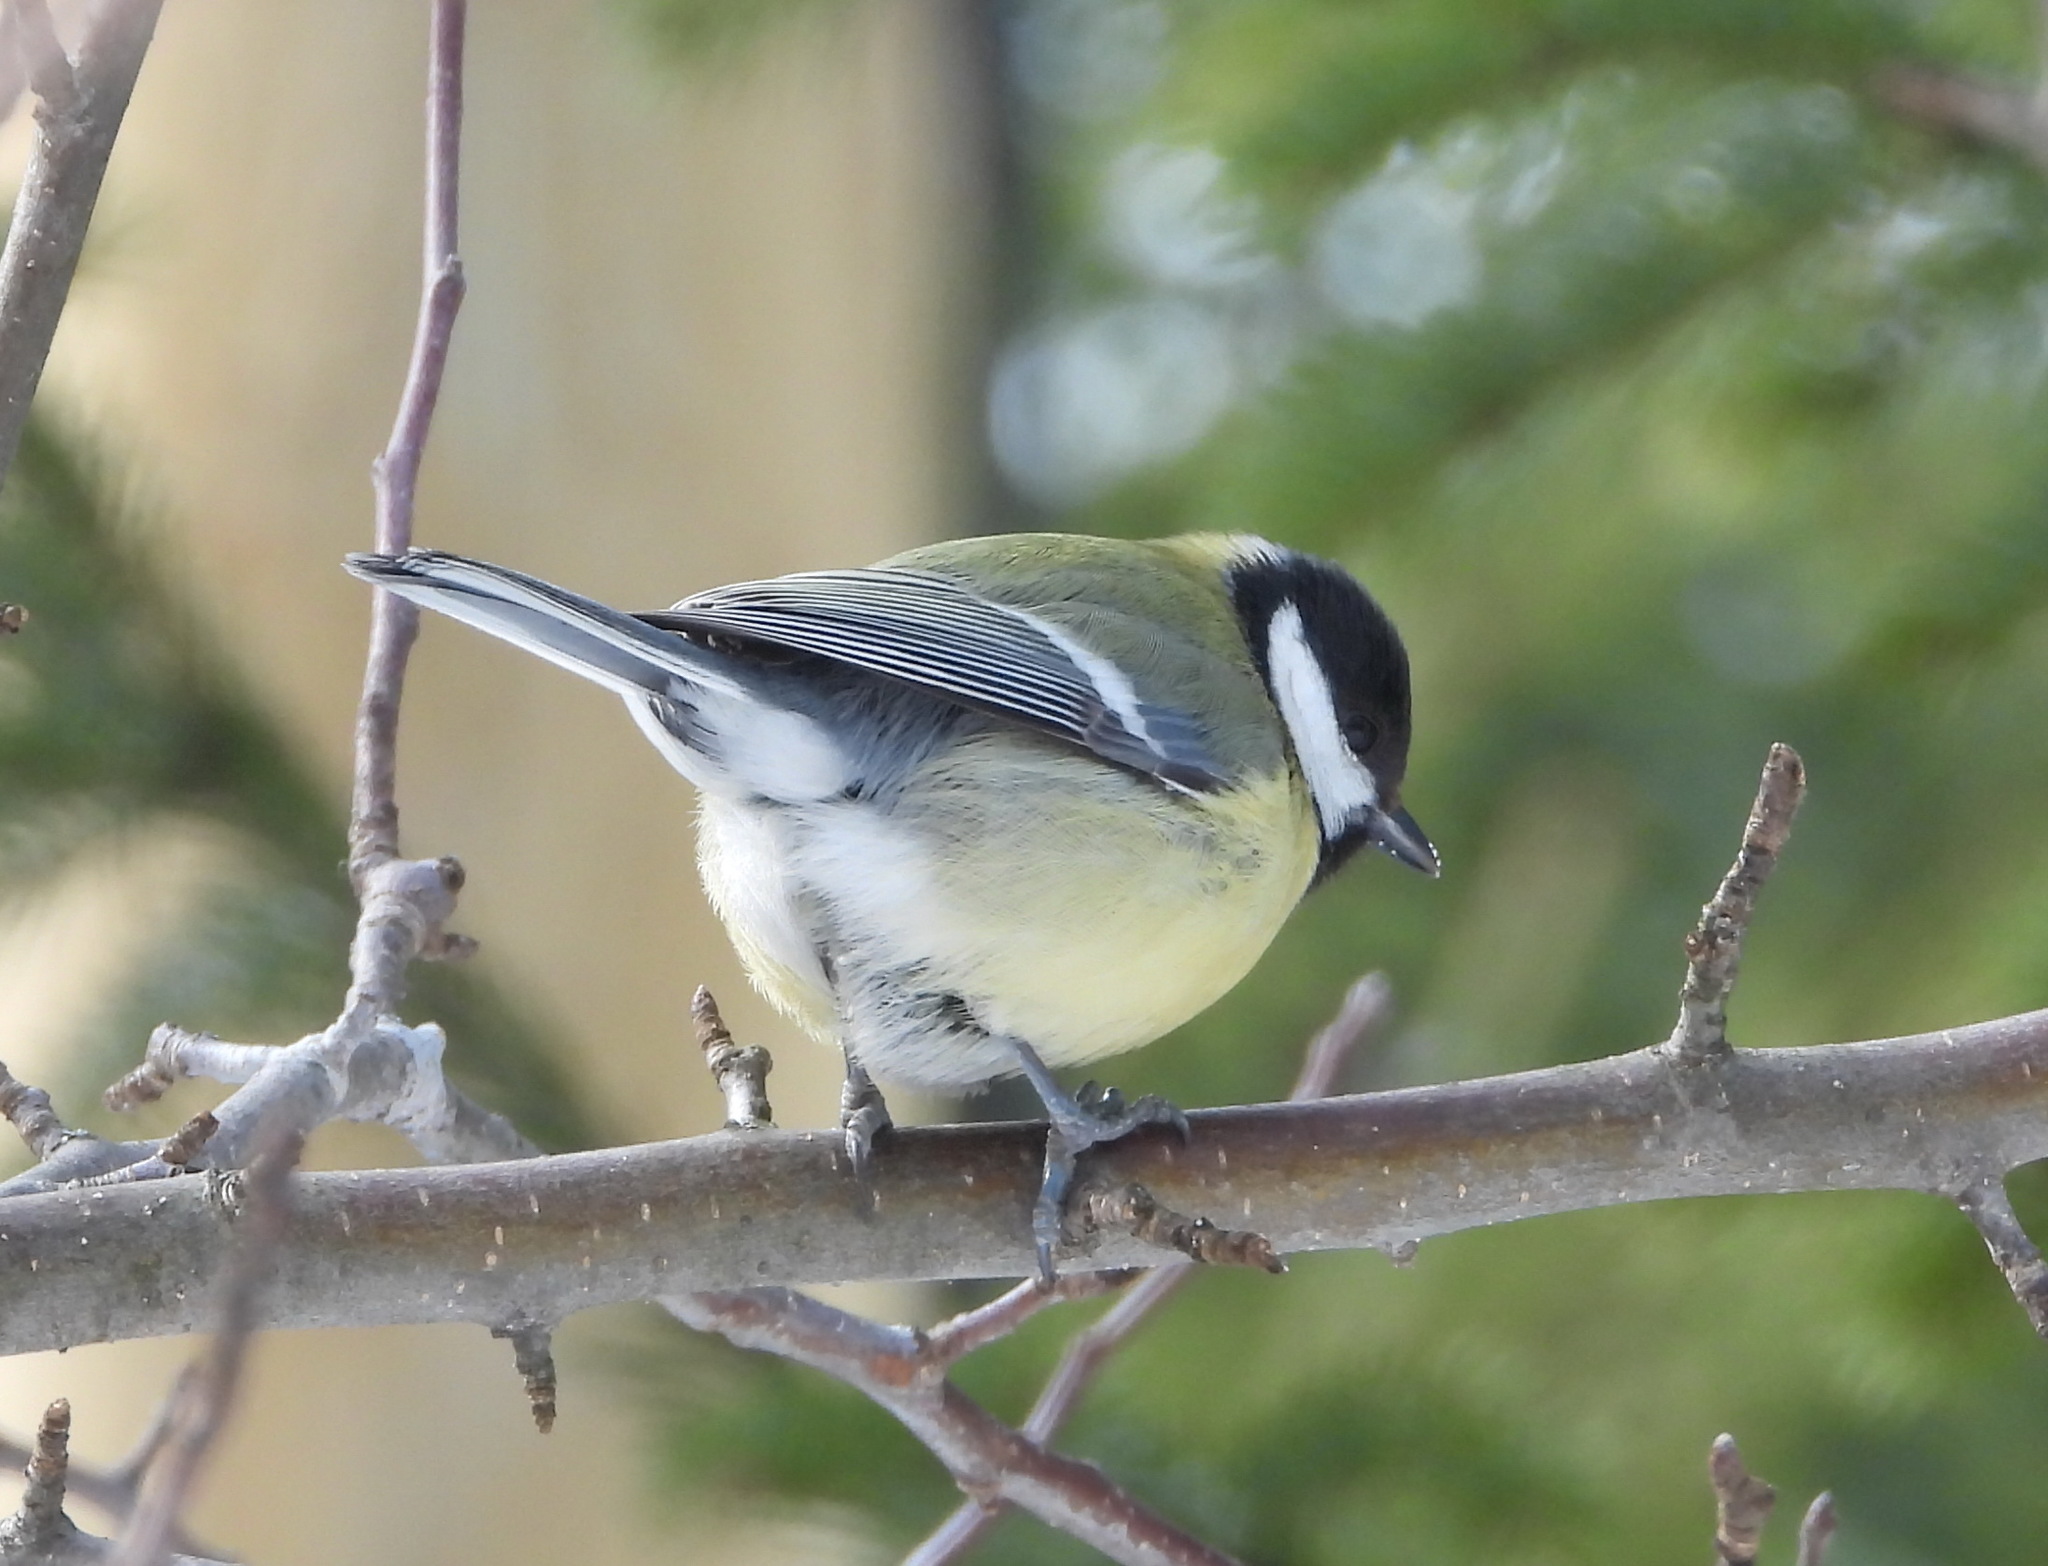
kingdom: Animalia
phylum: Chordata
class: Aves
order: Passeriformes
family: Paridae
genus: Parus
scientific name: Parus major
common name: Great tit
